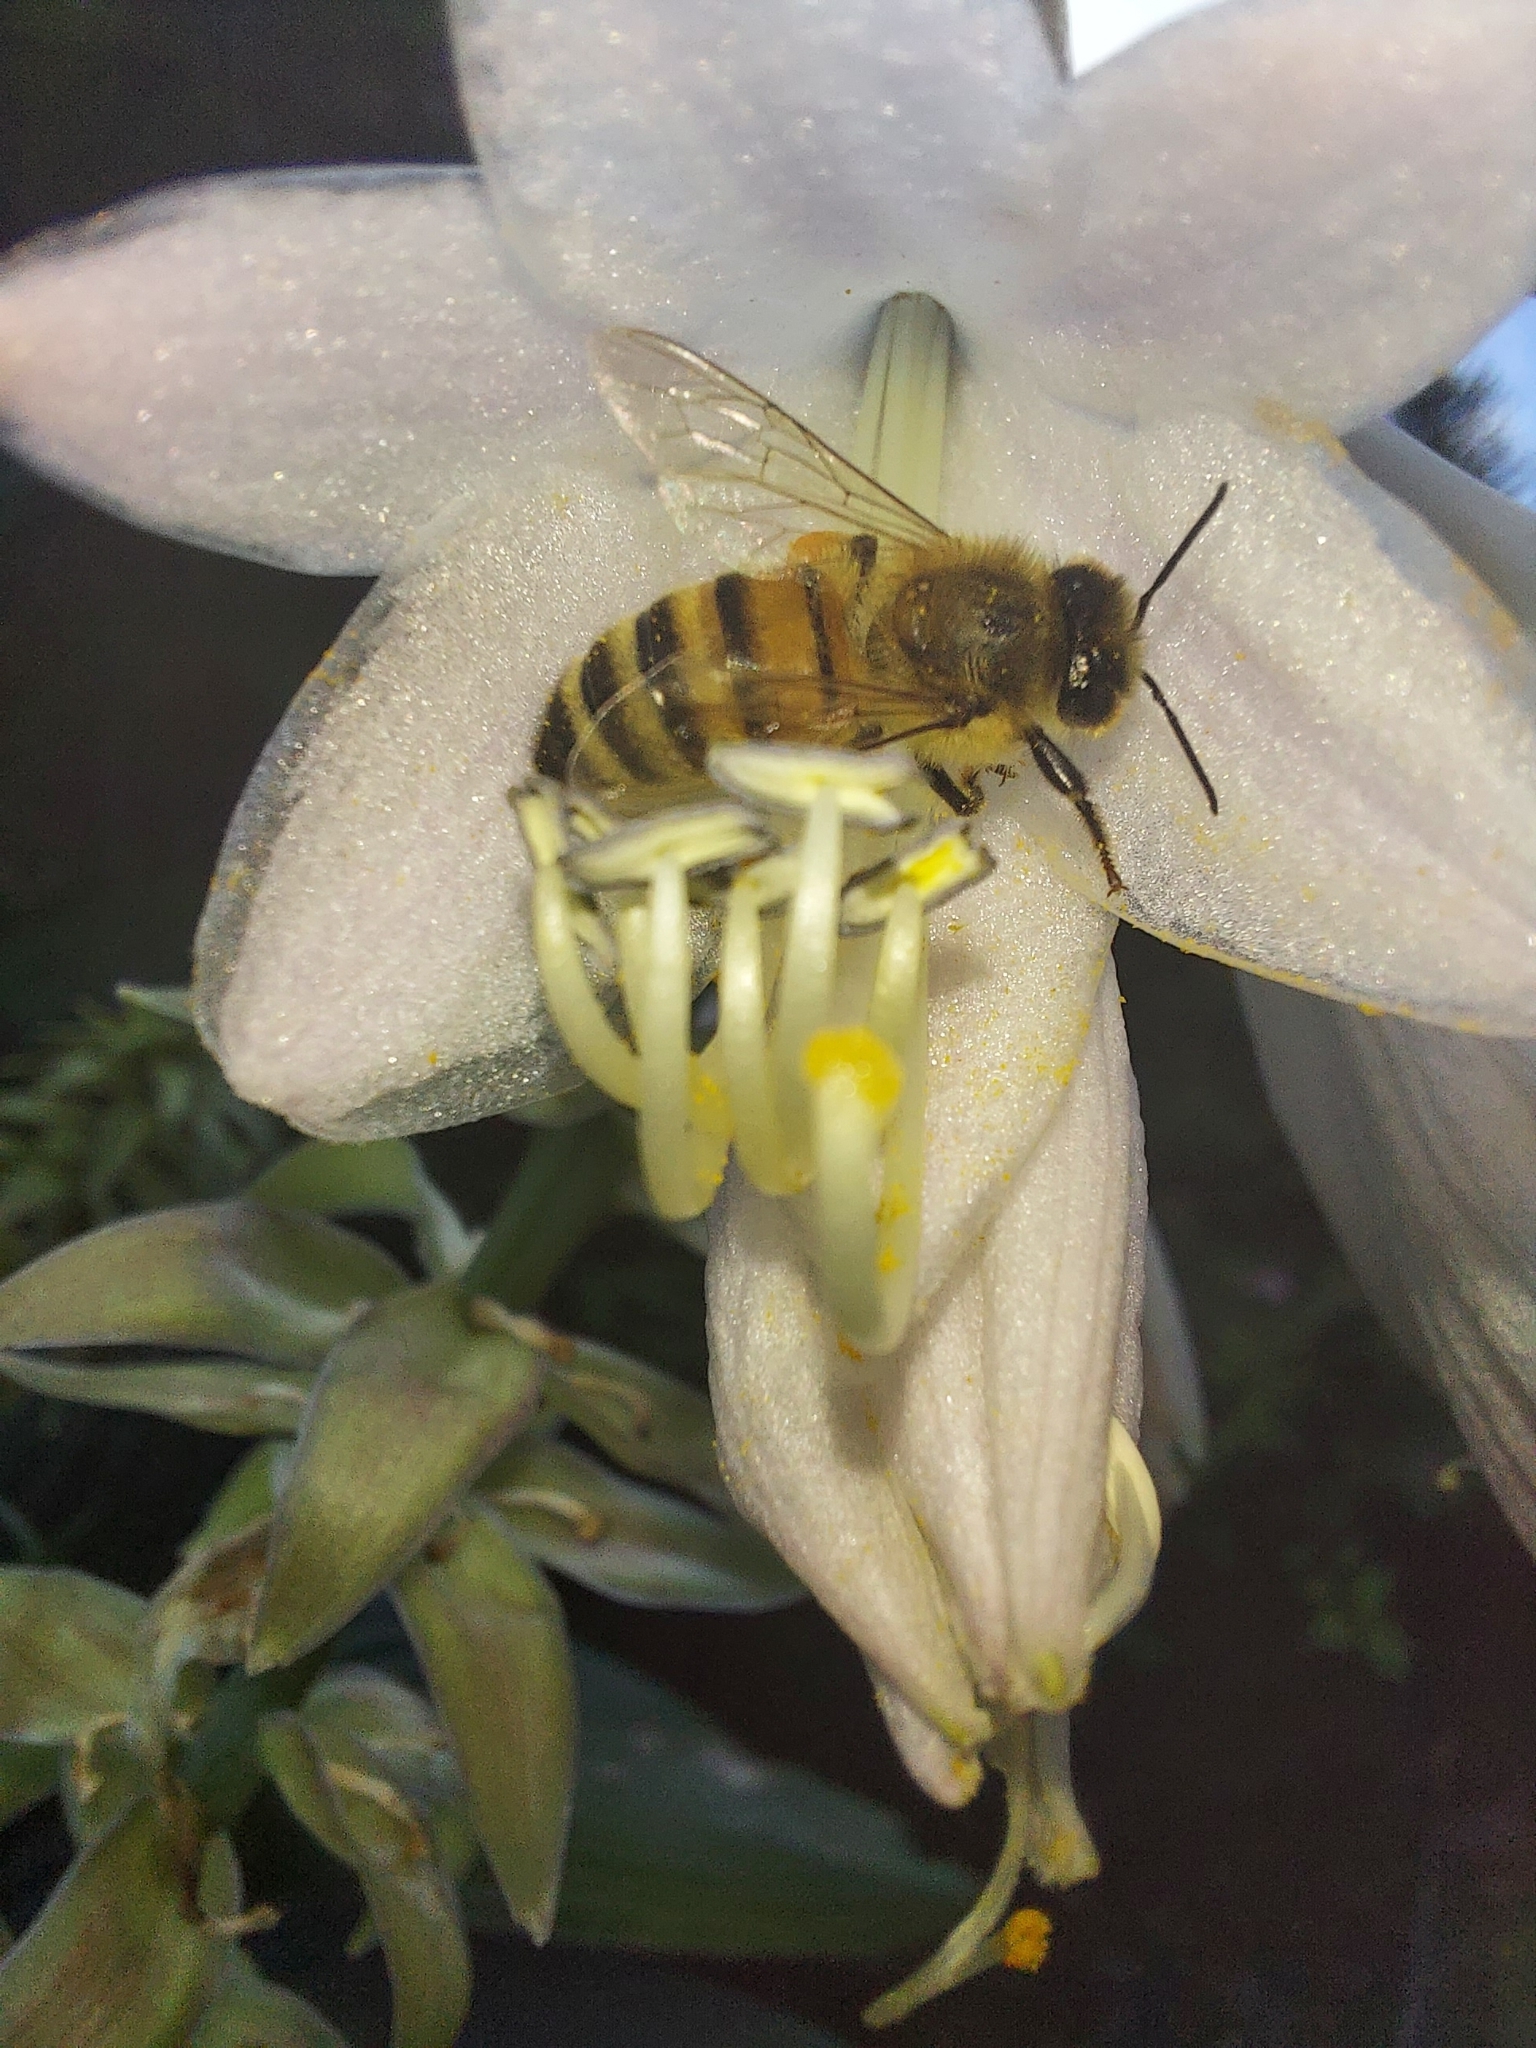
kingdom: Animalia
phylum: Arthropoda
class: Insecta
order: Hymenoptera
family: Apidae
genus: Apis
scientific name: Apis mellifera
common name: Honey bee
